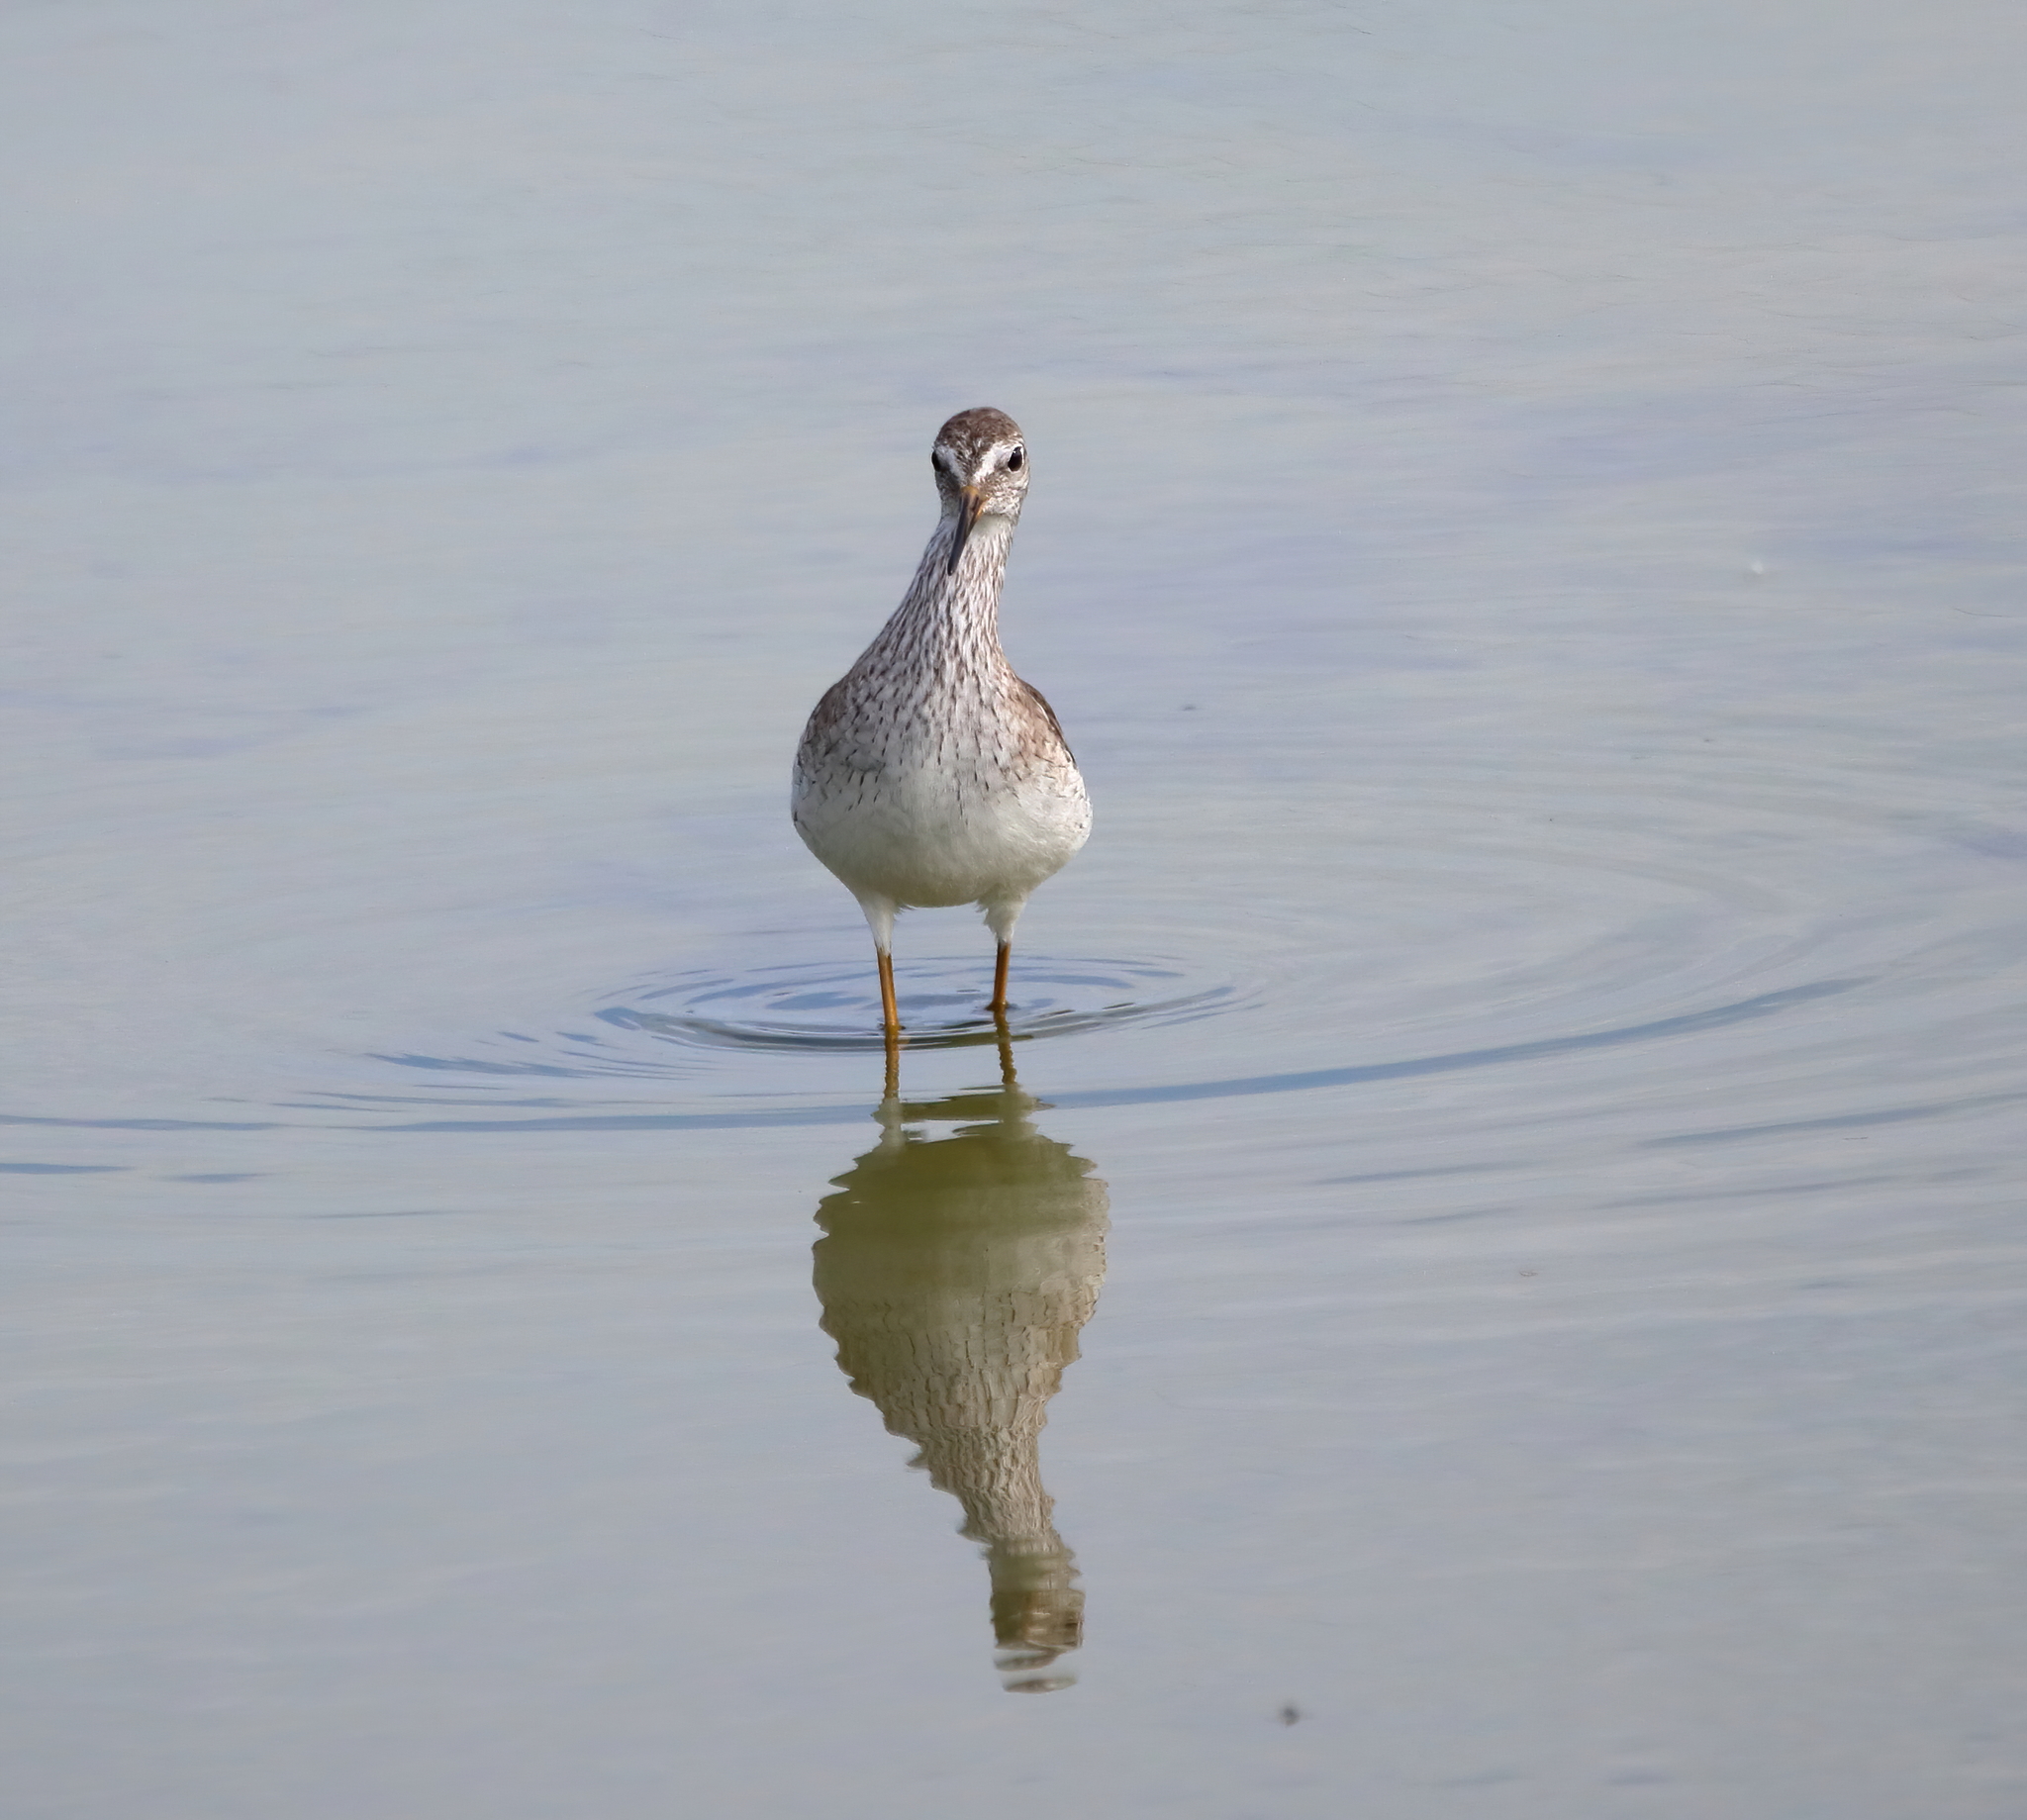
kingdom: Animalia
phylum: Chordata
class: Aves
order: Charadriiformes
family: Scolopacidae
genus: Tringa
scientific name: Tringa flavipes
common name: Lesser yellowlegs
